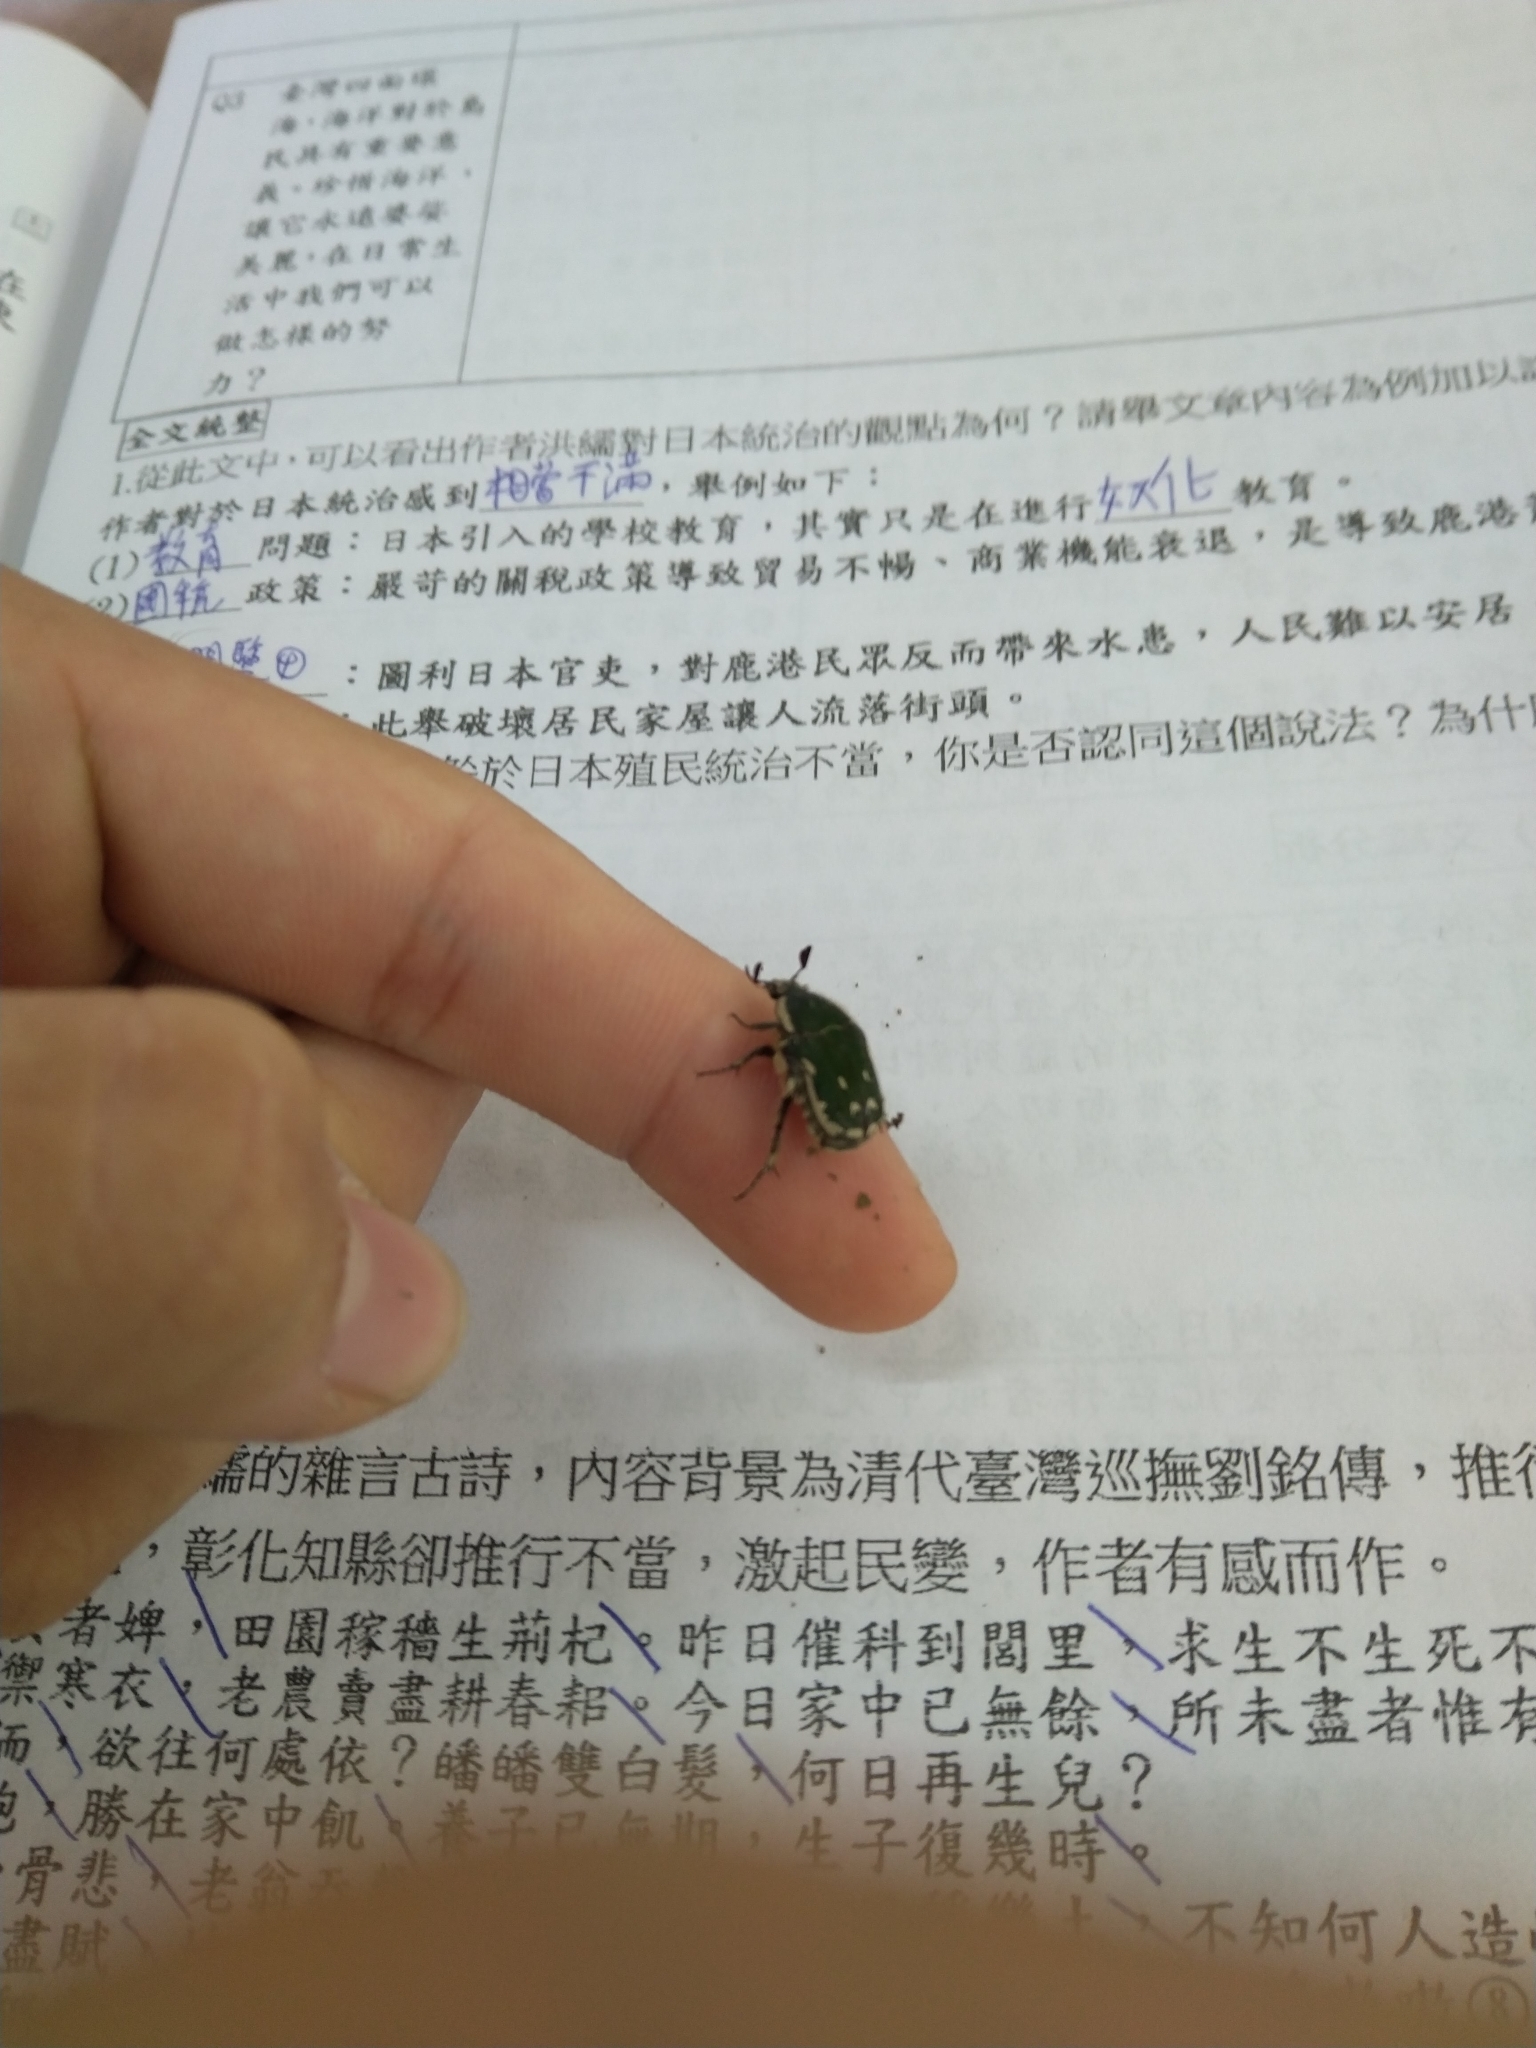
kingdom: Animalia
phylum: Arthropoda
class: Insecta
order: Coleoptera
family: Scarabaeidae
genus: Gametis
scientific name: Gametis incongrua
